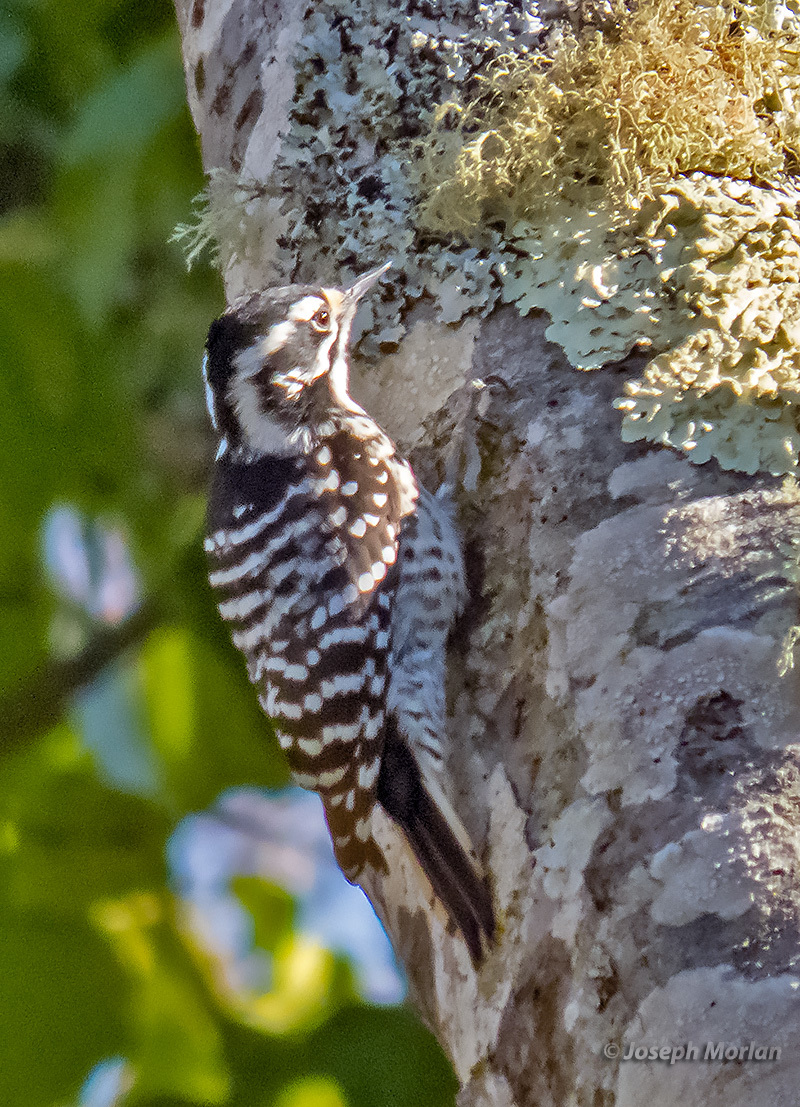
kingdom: Animalia
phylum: Chordata
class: Aves
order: Piciformes
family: Picidae
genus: Dryobates
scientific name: Dryobates nuttallii
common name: Nuttall's woodpecker
